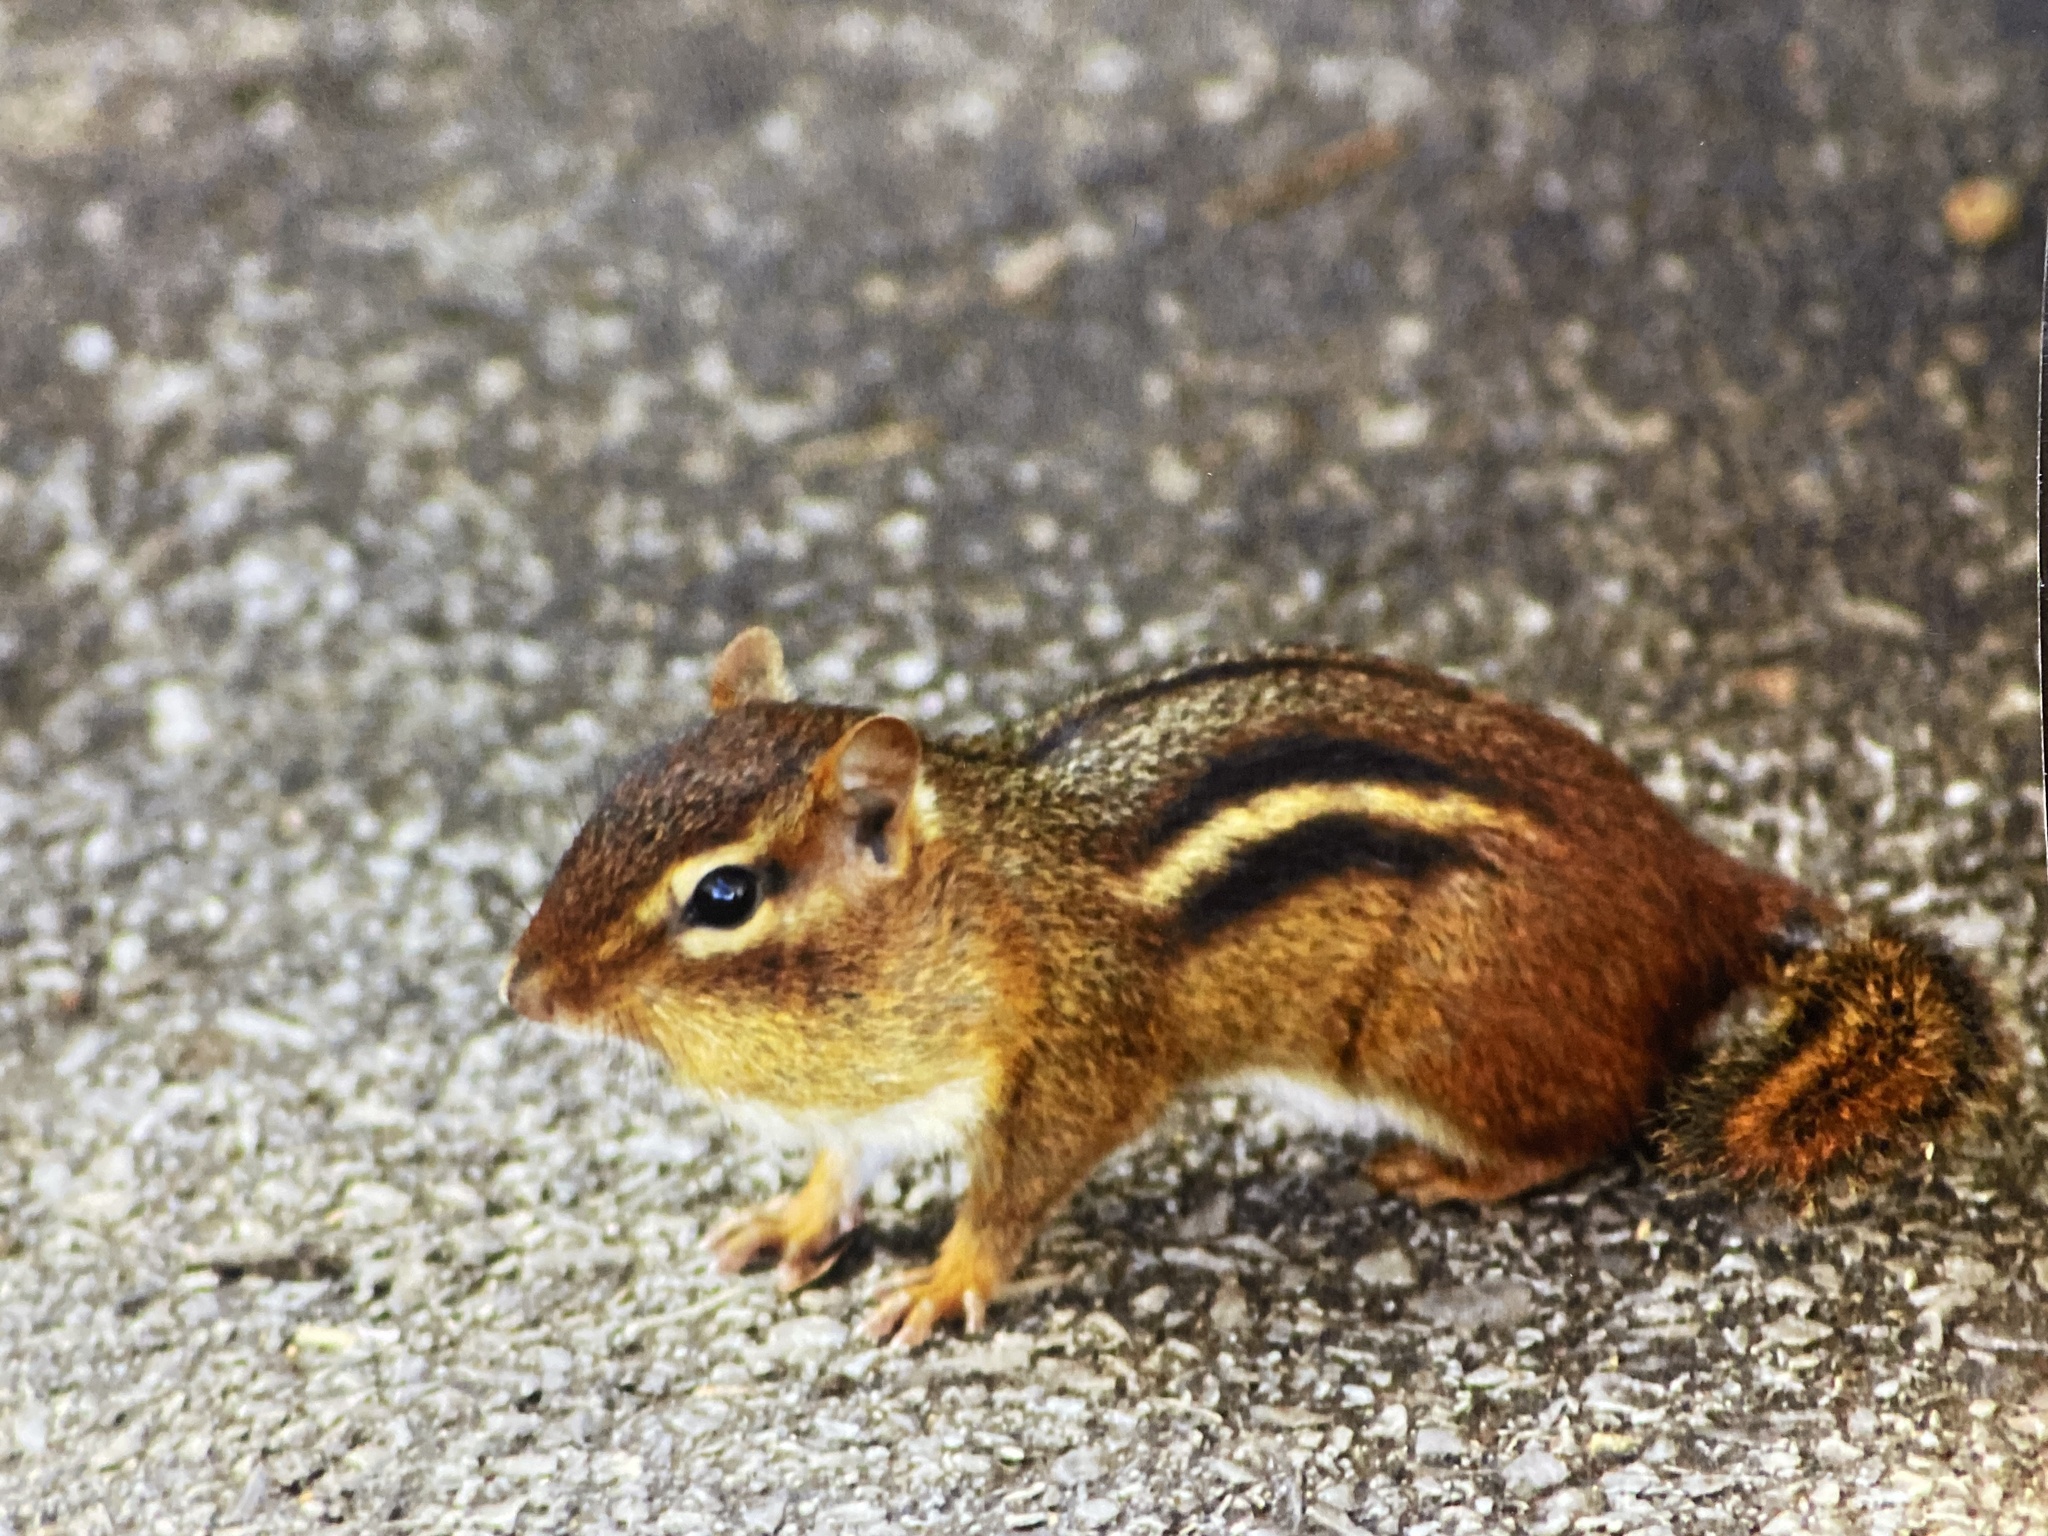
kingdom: Animalia
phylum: Chordata
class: Mammalia
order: Rodentia
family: Sciuridae
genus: Tamias
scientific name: Tamias striatus
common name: Eastern chipmunk
